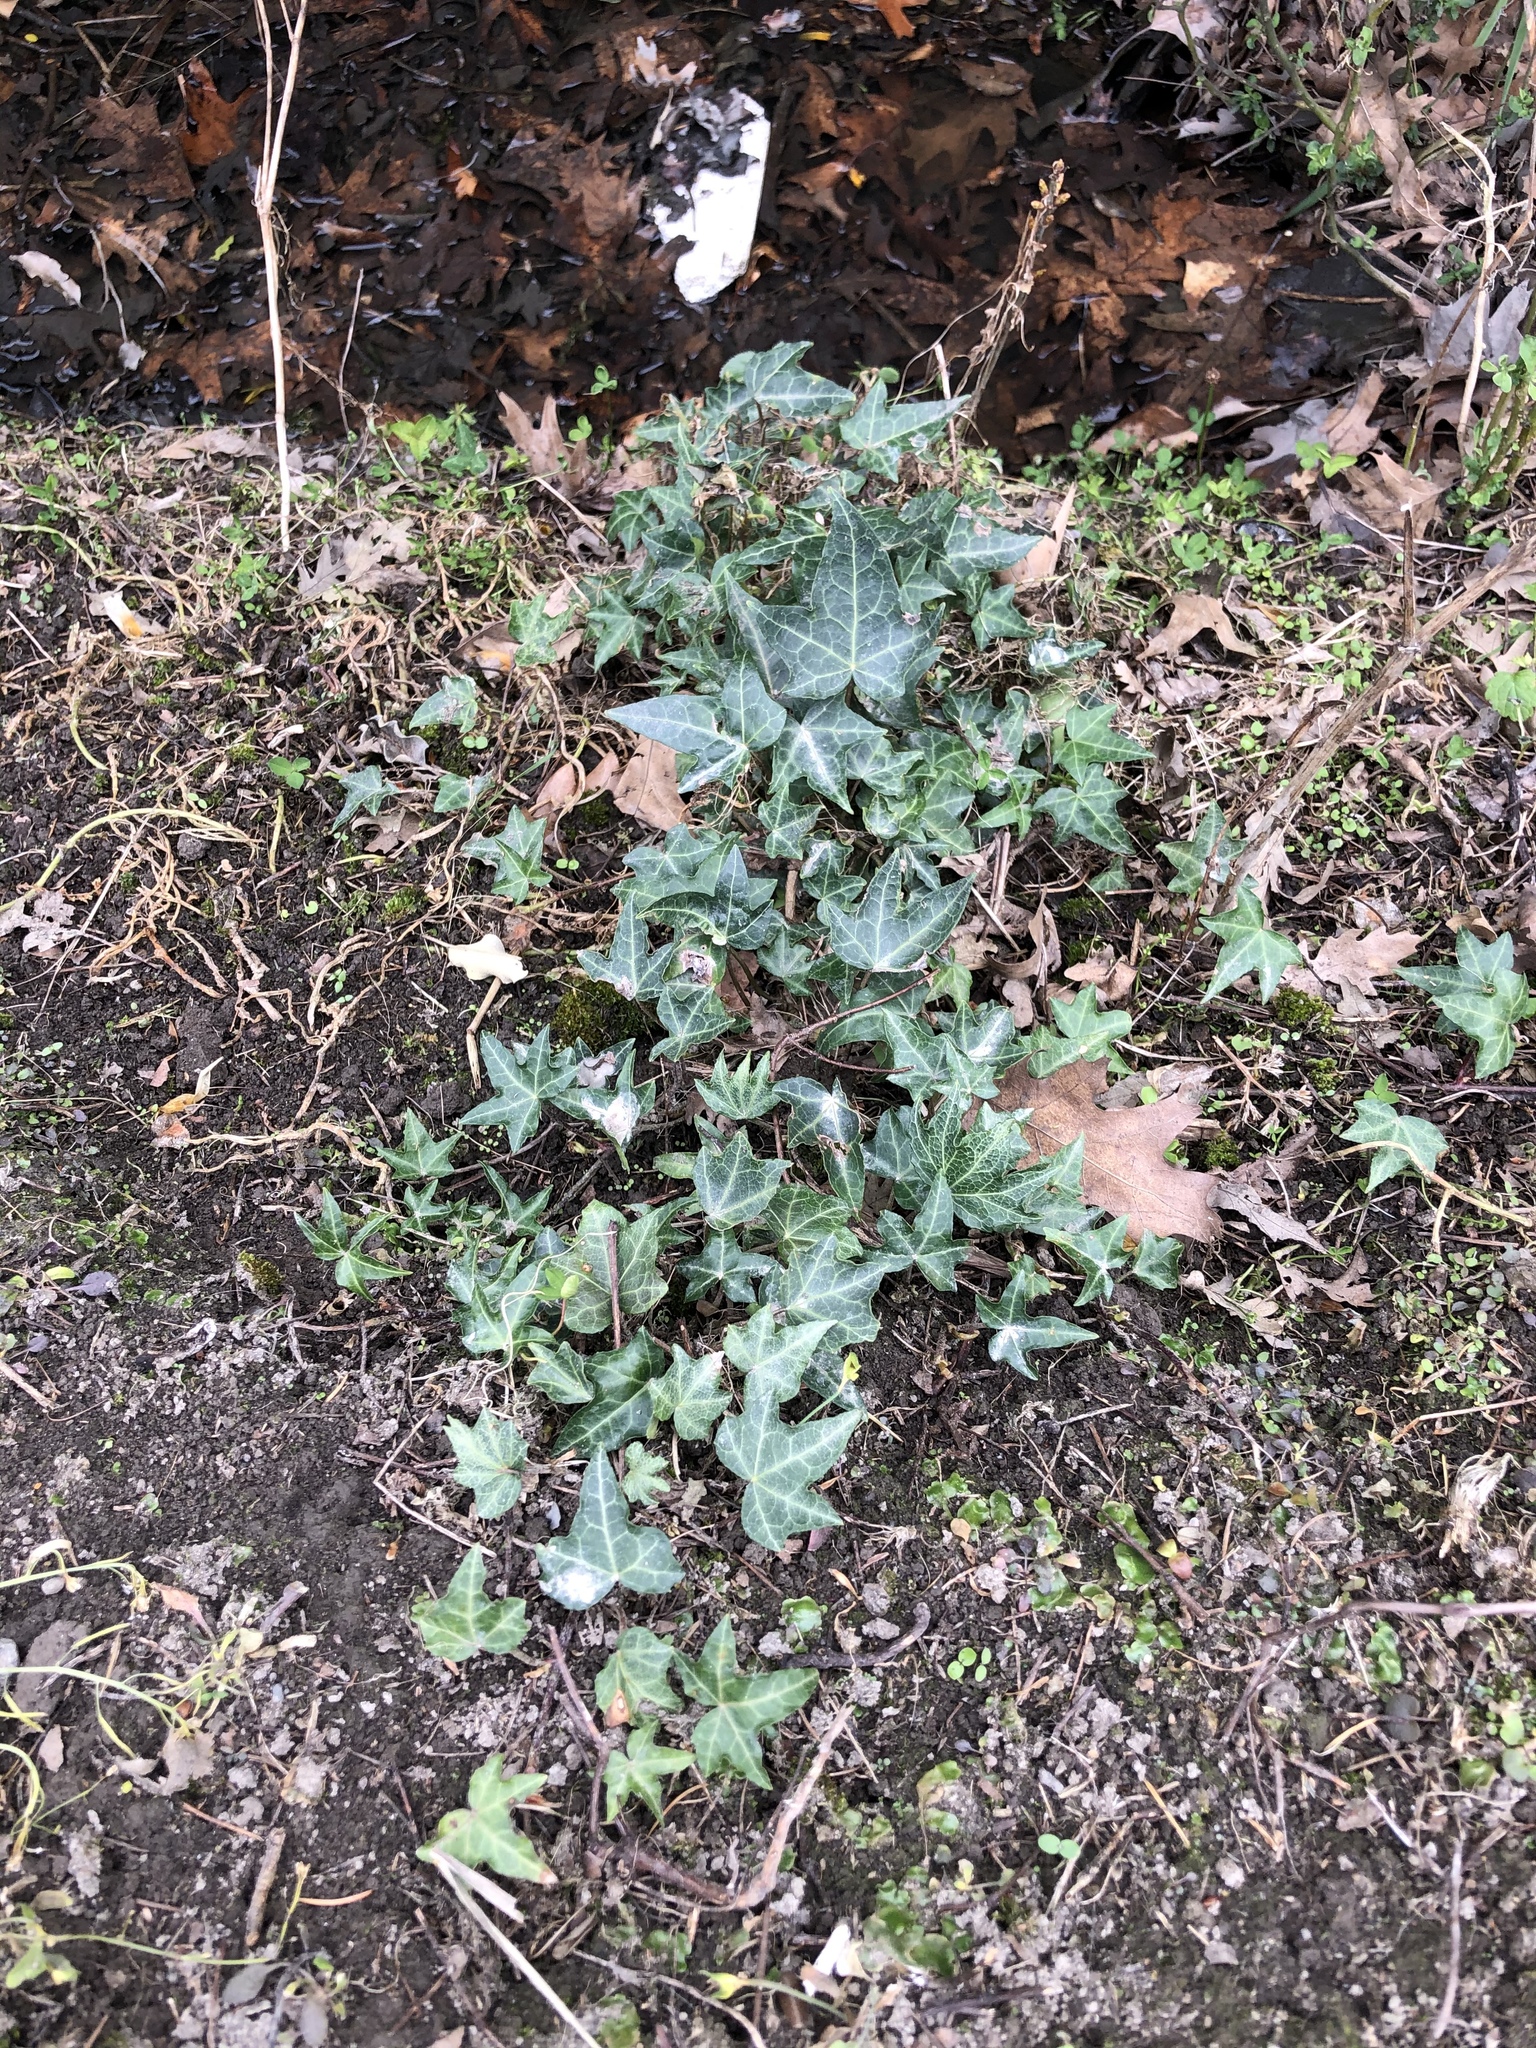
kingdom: Plantae
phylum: Tracheophyta
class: Magnoliopsida
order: Apiales
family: Araliaceae
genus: Hedera
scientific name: Hedera helix
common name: Ivy
